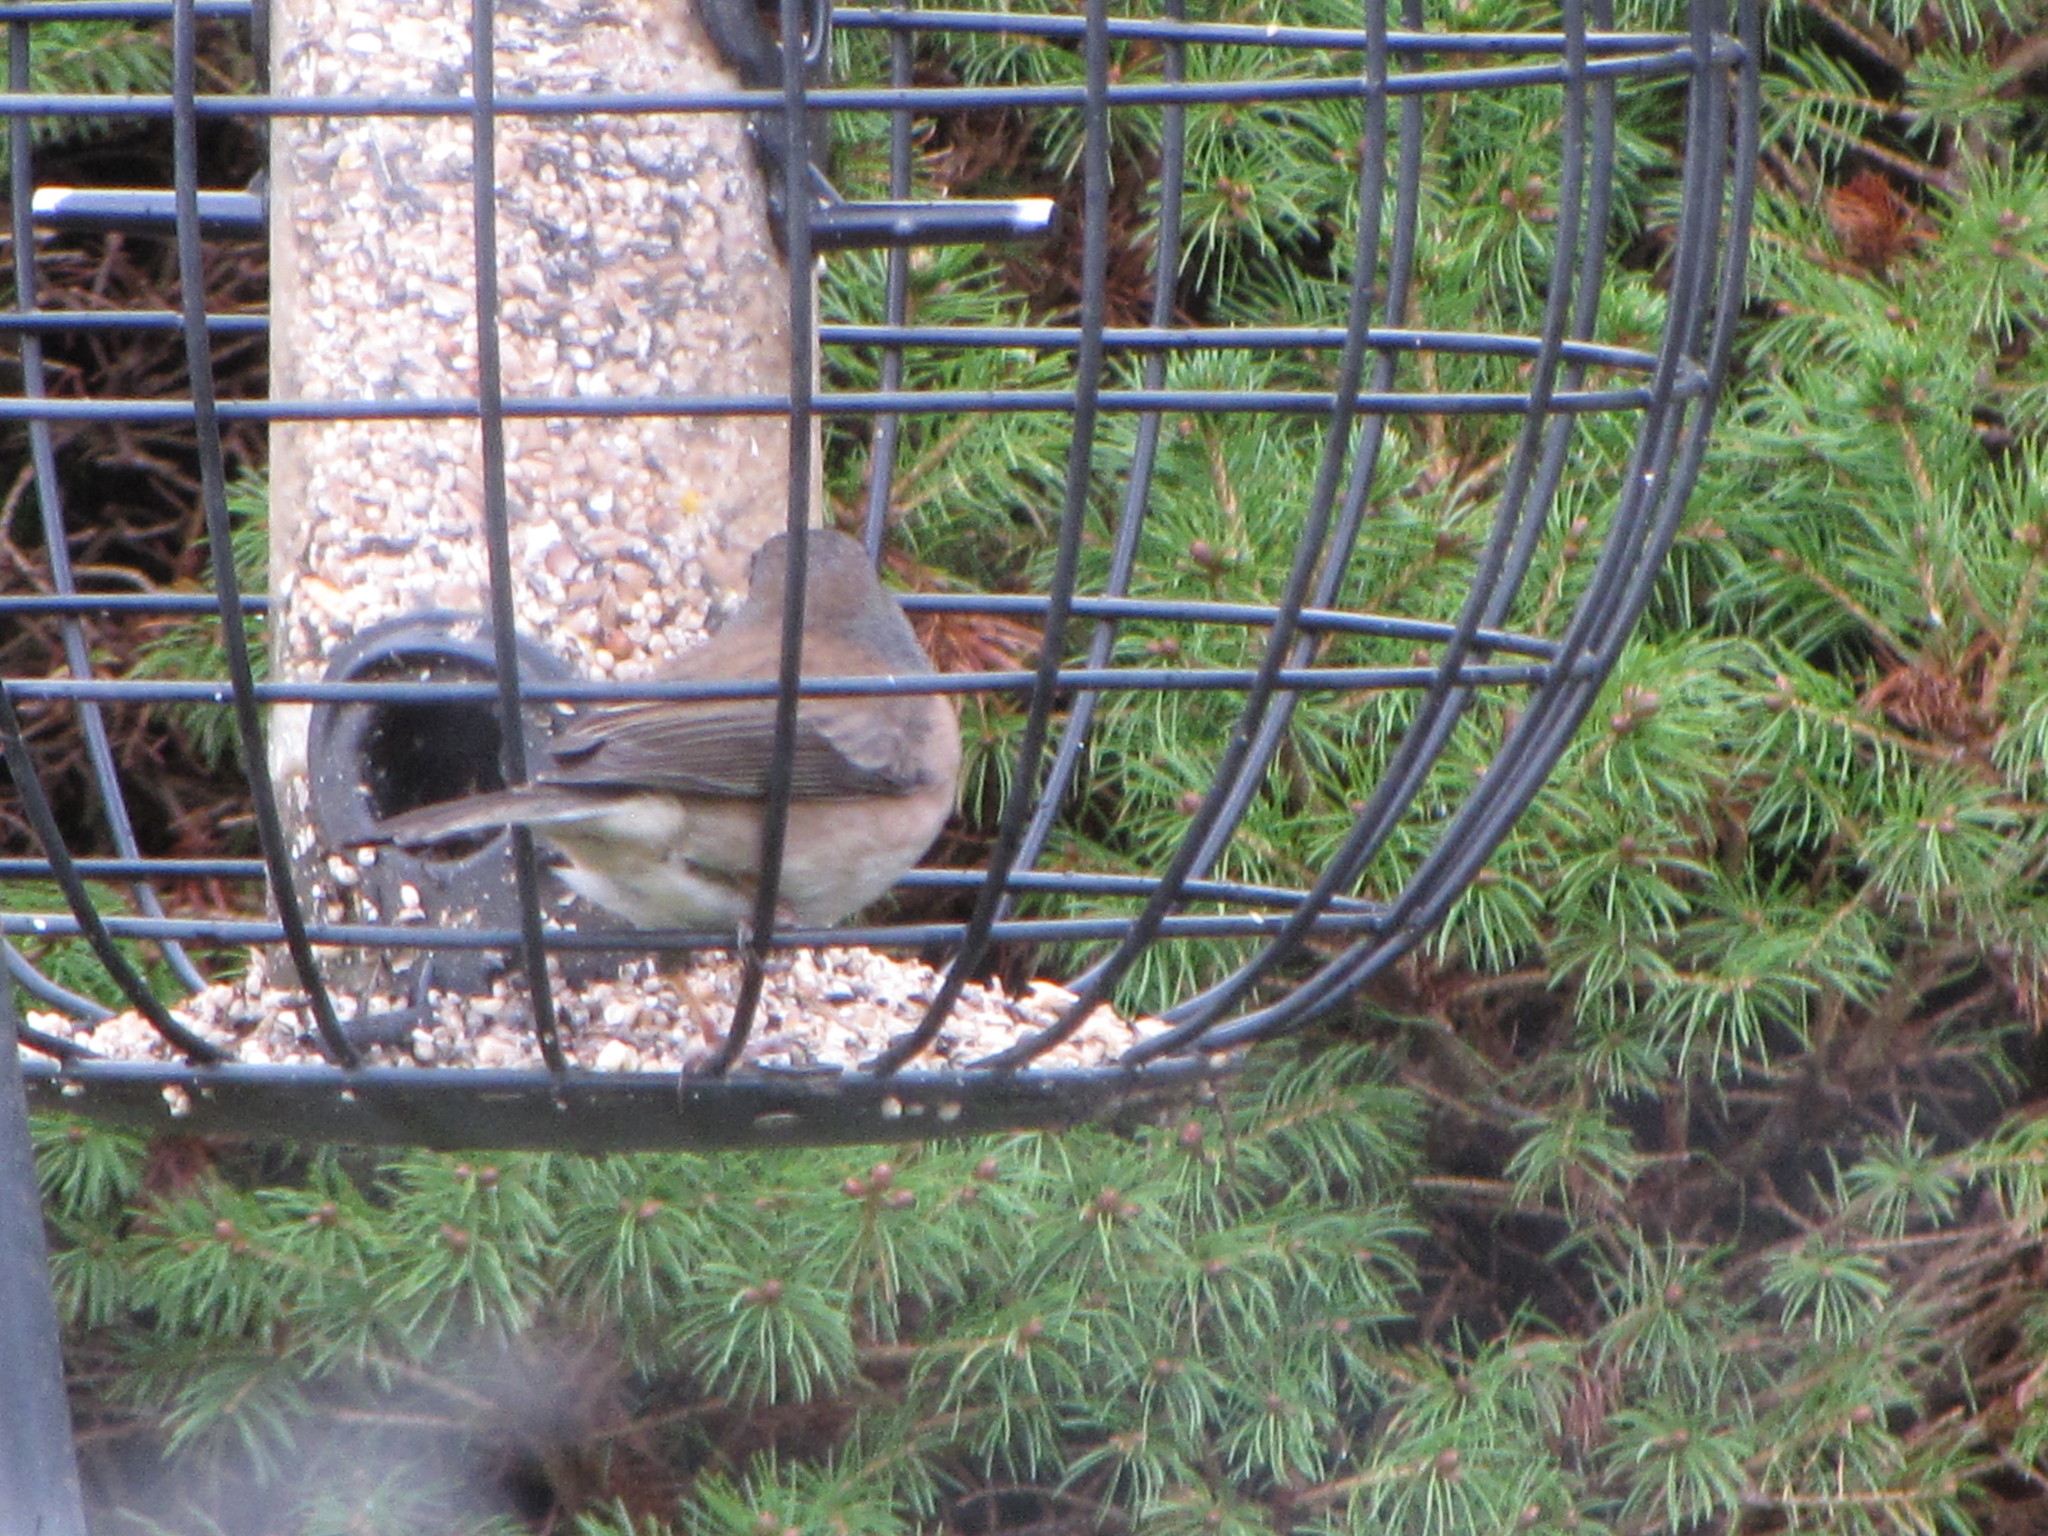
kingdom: Animalia
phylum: Chordata
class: Aves
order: Passeriformes
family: Passerellidae
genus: Junco
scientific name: Junco hyemalis
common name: Dark-eyed junco
